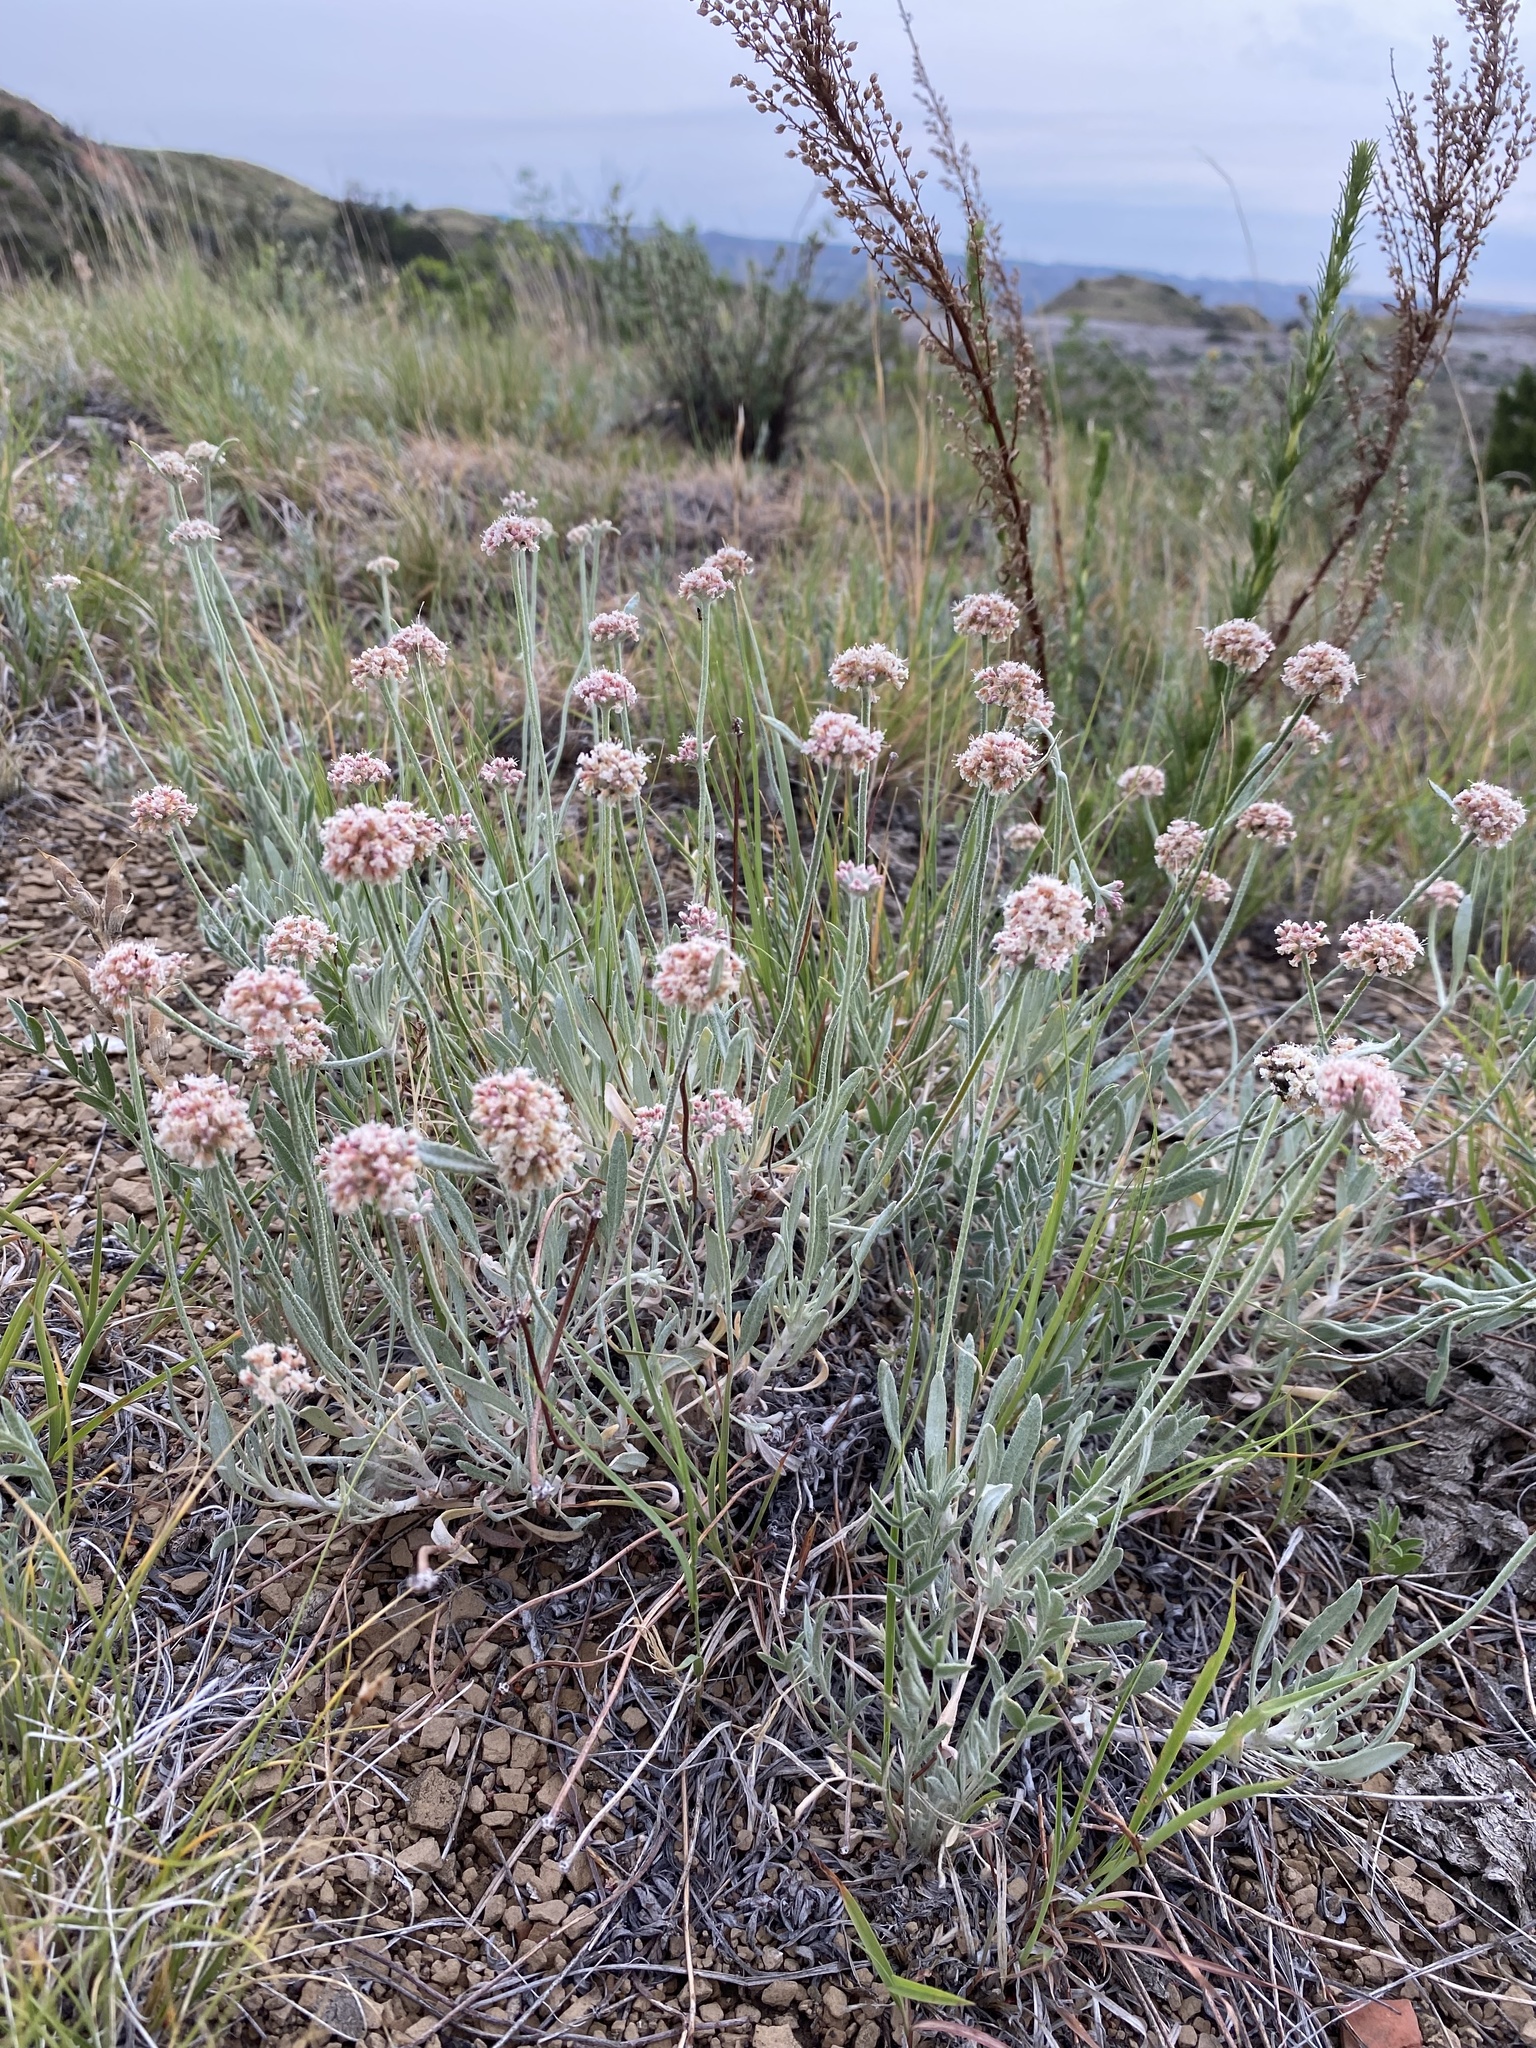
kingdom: Plantae
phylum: Tracheophyta
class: Magnoliopsida
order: Caryophyllales
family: Polygonaceae
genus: Eriogonum
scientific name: Eriogonum pauciflorum
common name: Few-flower wild buckwheat
